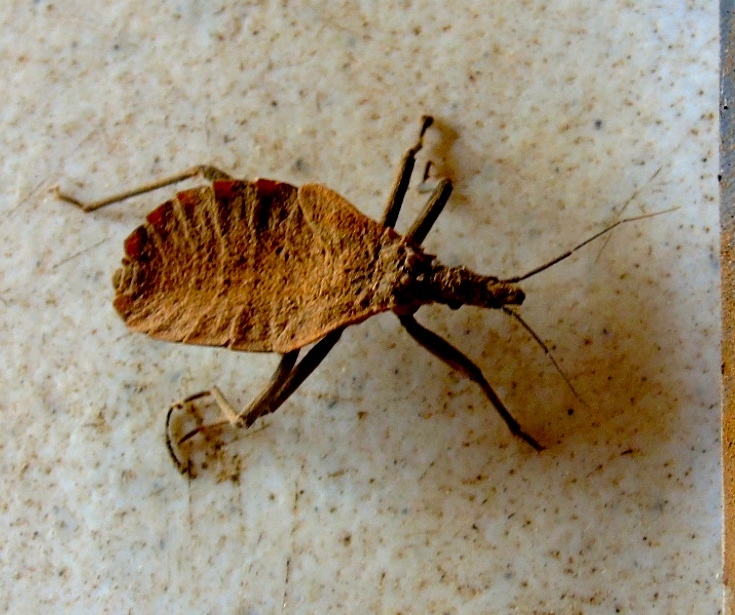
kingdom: Animalia
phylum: Arthropoda
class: Insecta
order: Hemiptera
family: Reduviidae
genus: Triatoma
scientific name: Triatoma
